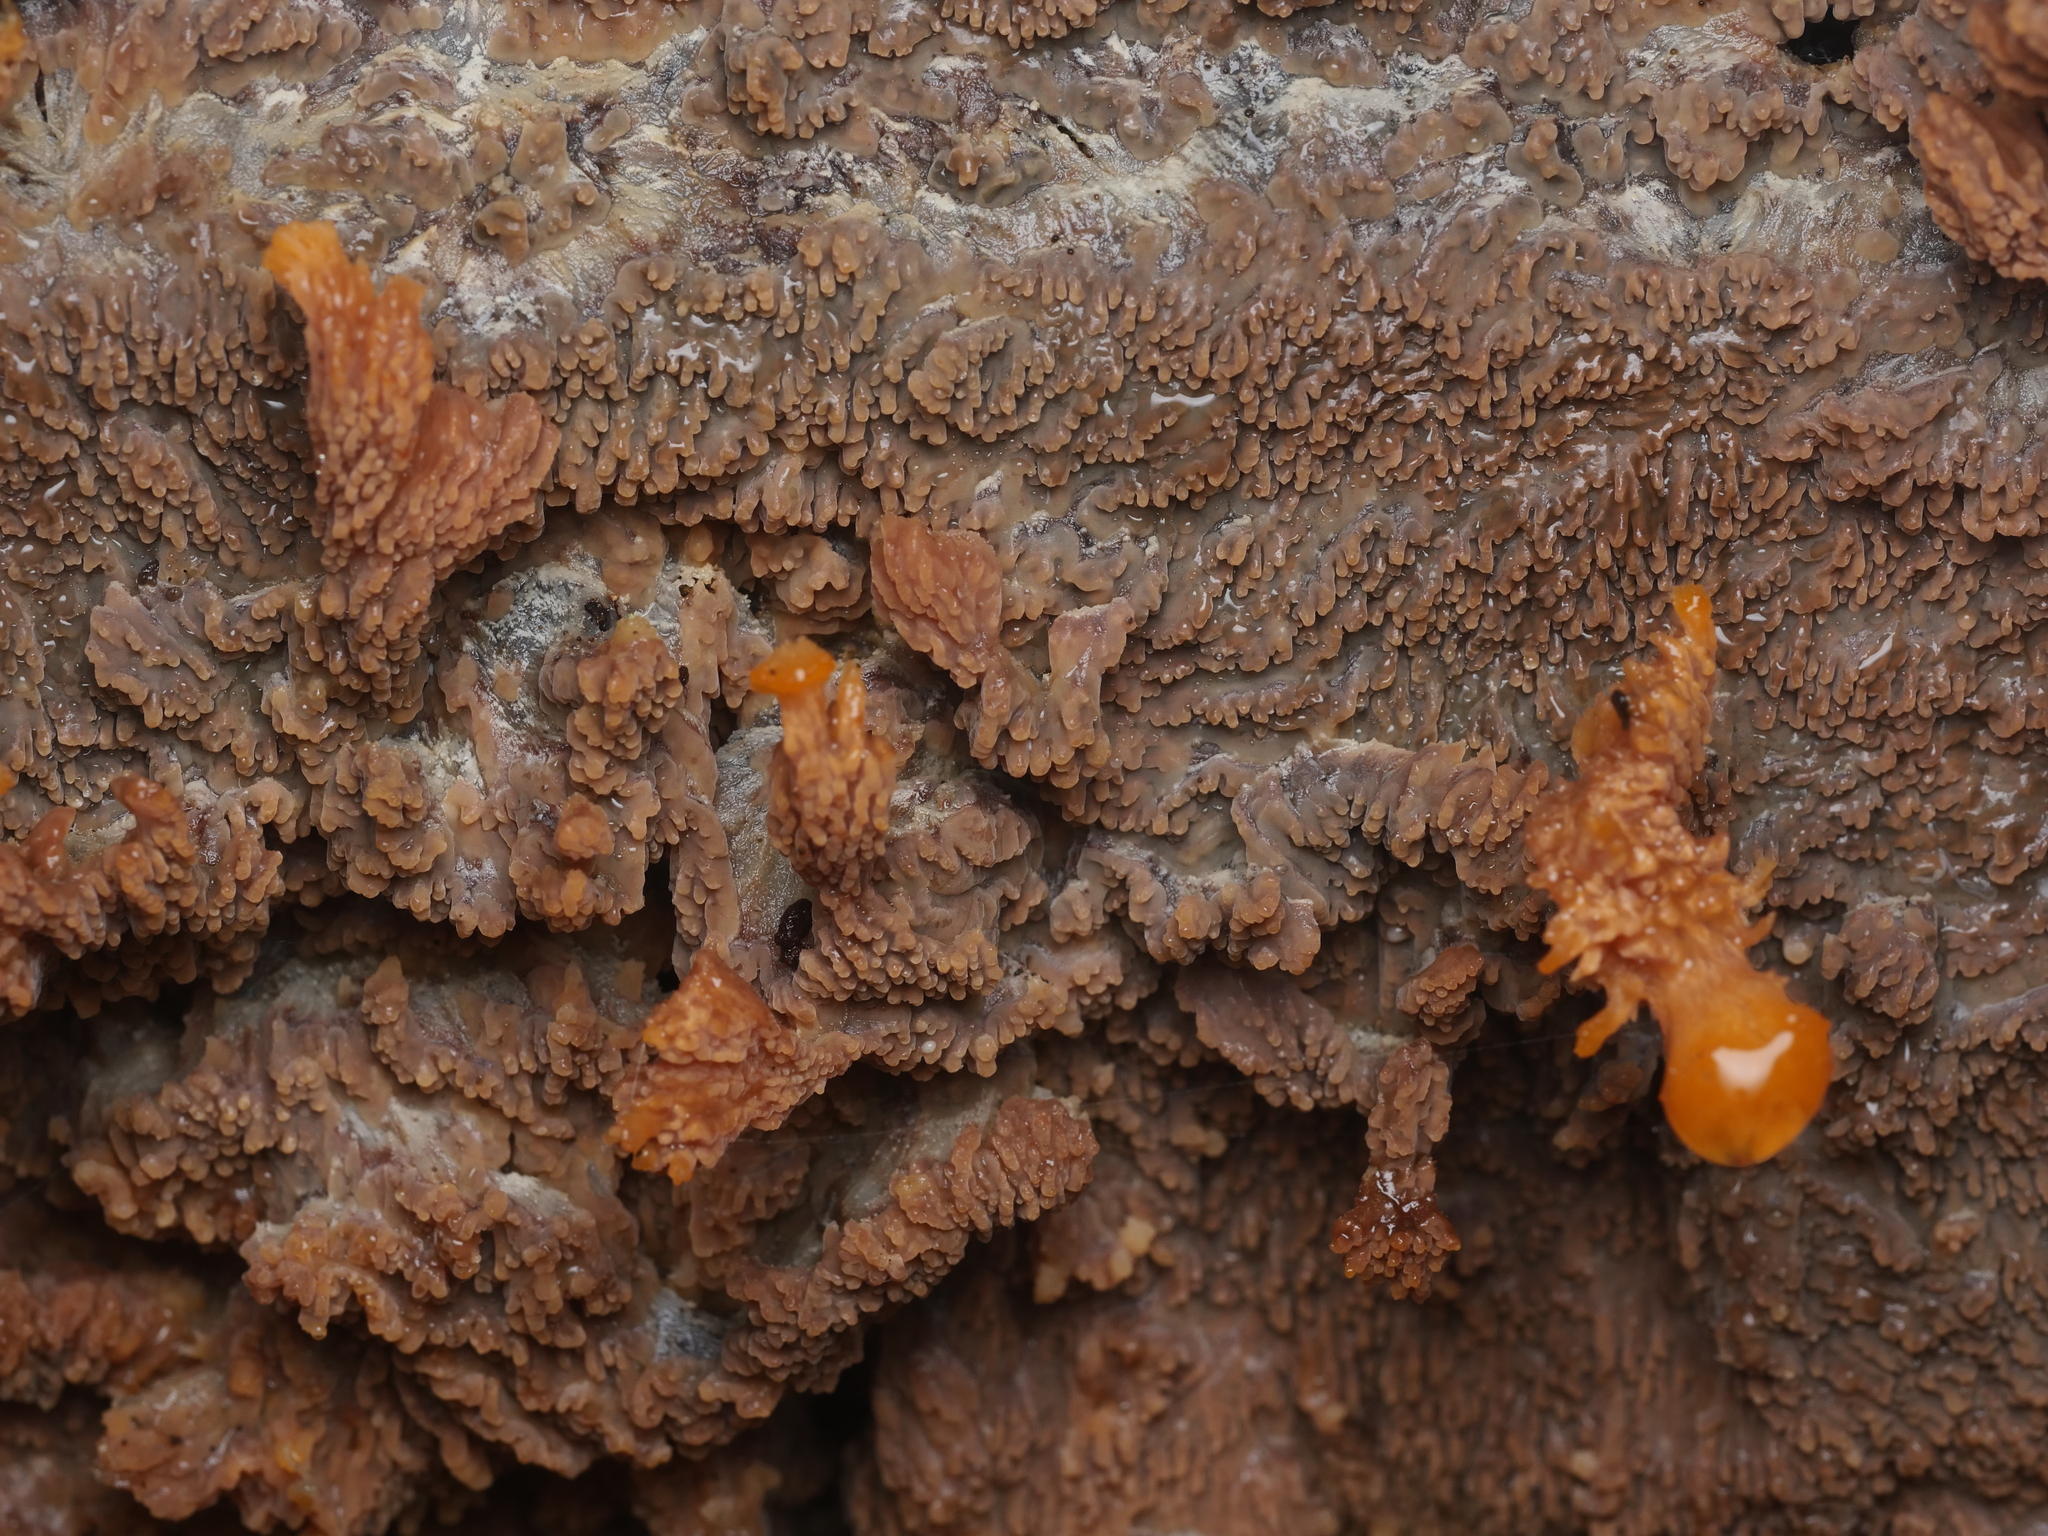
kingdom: Fungi
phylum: Basidiomycota
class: Agaricomycetes
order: Polyporales
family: Meruliaceae
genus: Phlebia
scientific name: Phlebia radiata
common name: Wrinkled crust
